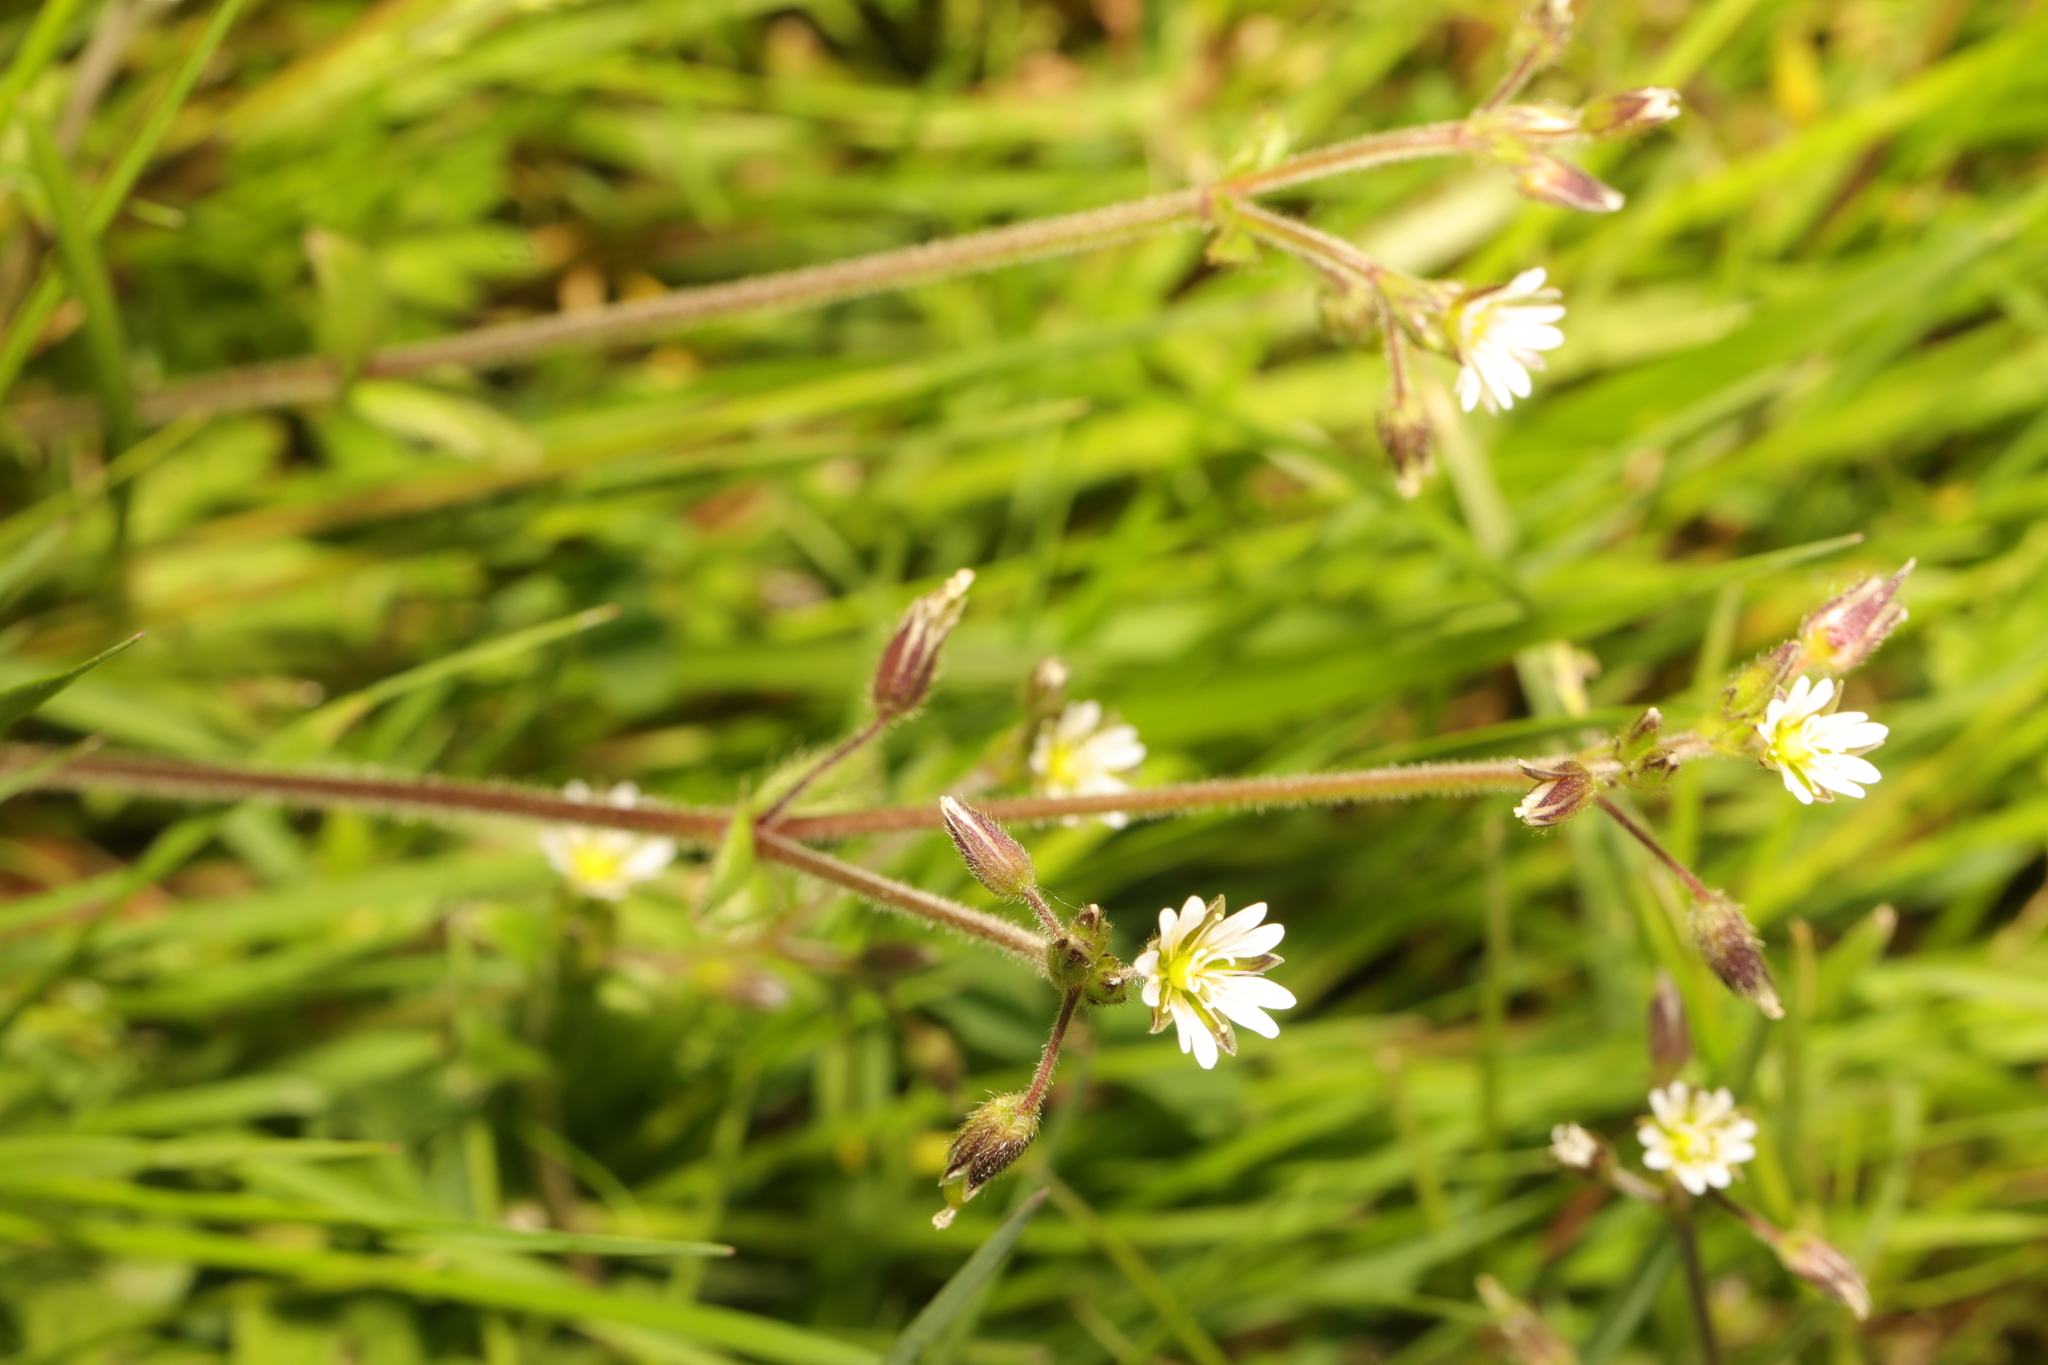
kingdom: Plantae
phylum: Tracheophyta
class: Magnoliopsida
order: Caryophyllales
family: Caryophyllaceae
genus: Cerastium
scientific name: Cerastium fontanum
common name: Common mouse-ear
